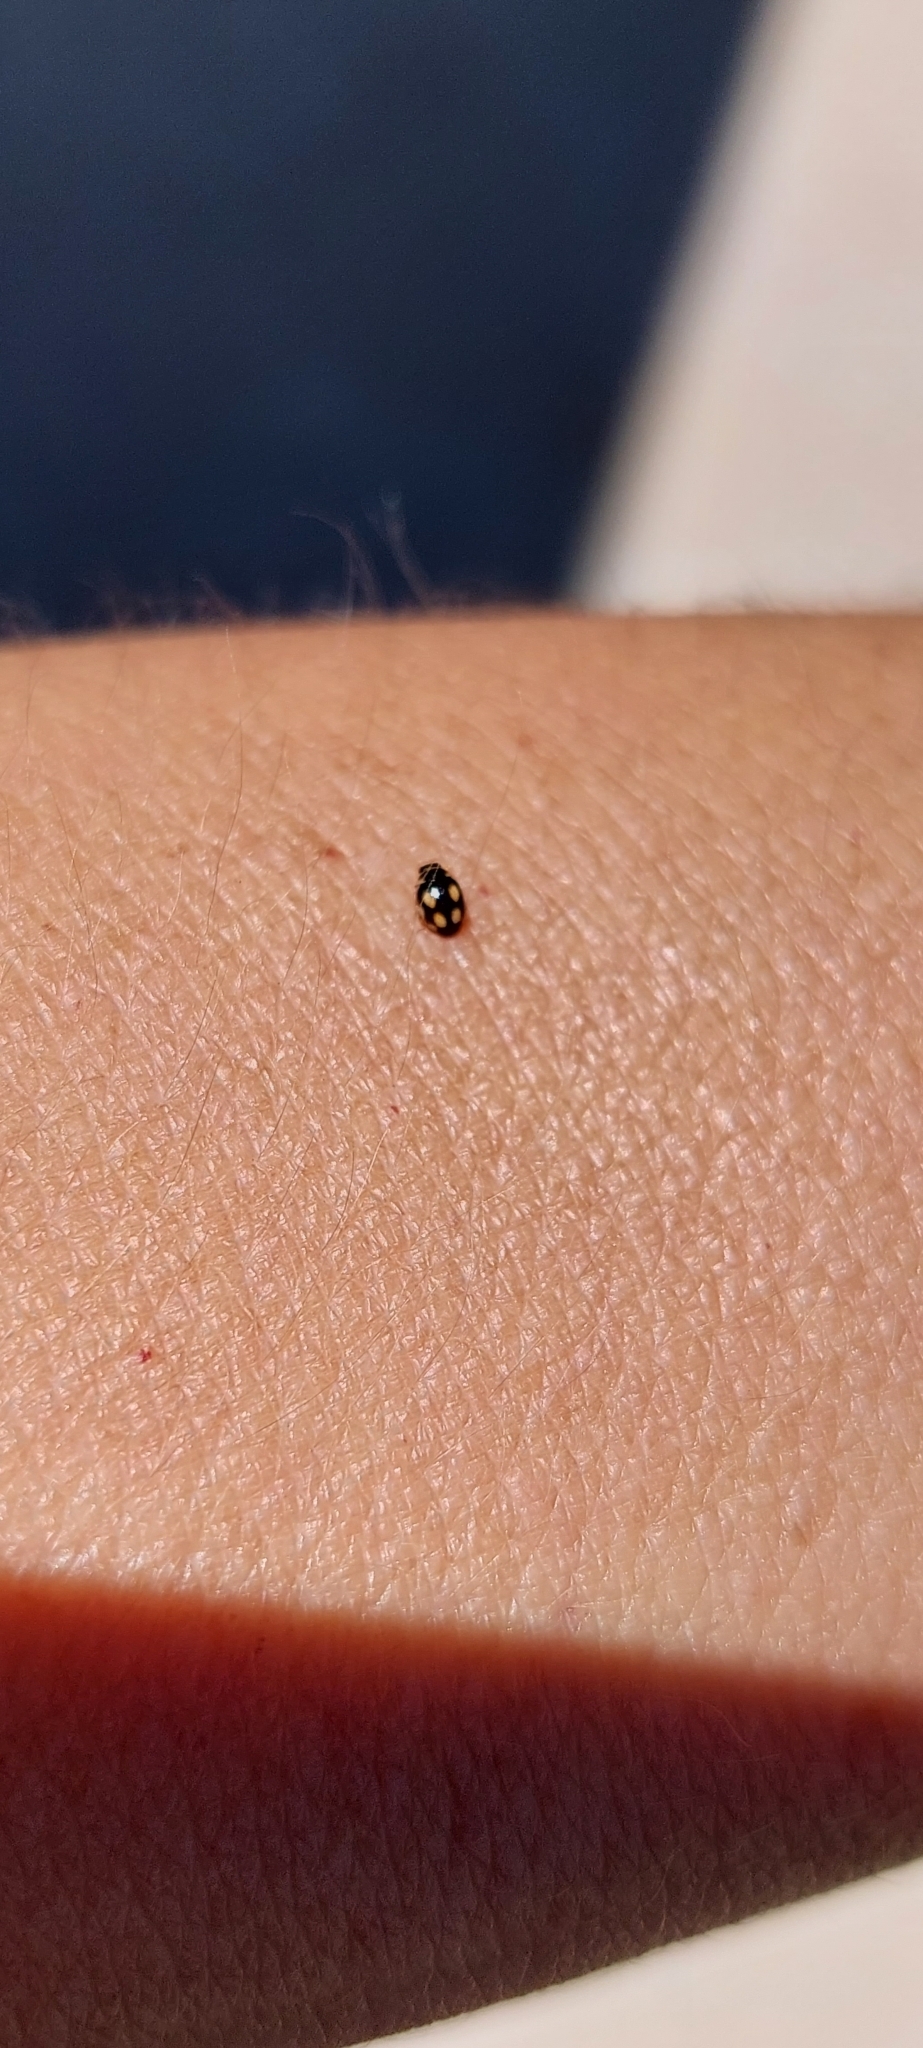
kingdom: Animalia
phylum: Arthropoda
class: Insecta
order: Coleoptera
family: Coccinellidae
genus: Hyperaspis
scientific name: Hyperaspis festiva
